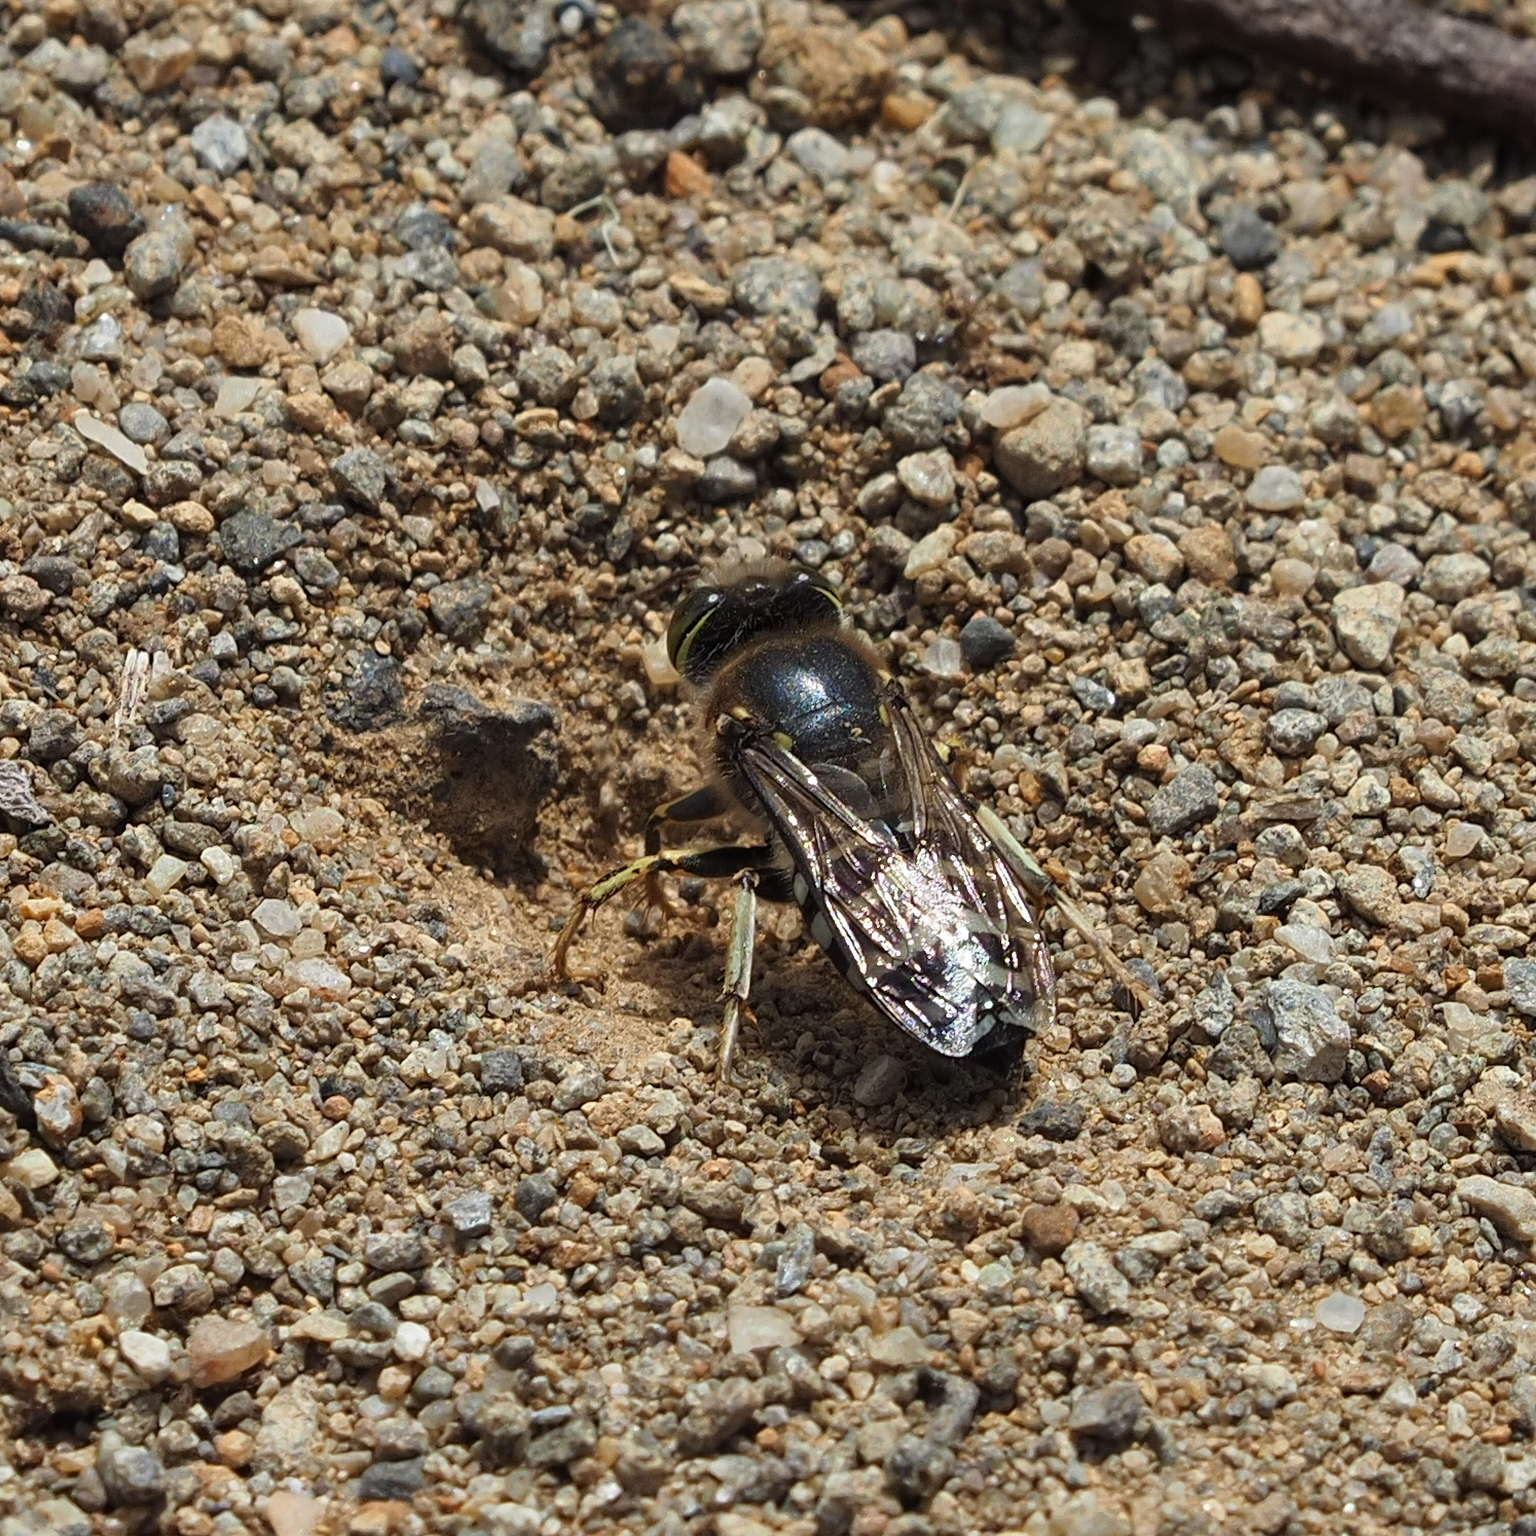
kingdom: Animalia
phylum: Arthropoda
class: Insecta
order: Hymenoptera
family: Crabronidae
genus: Bembix
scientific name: Bembix furcata
